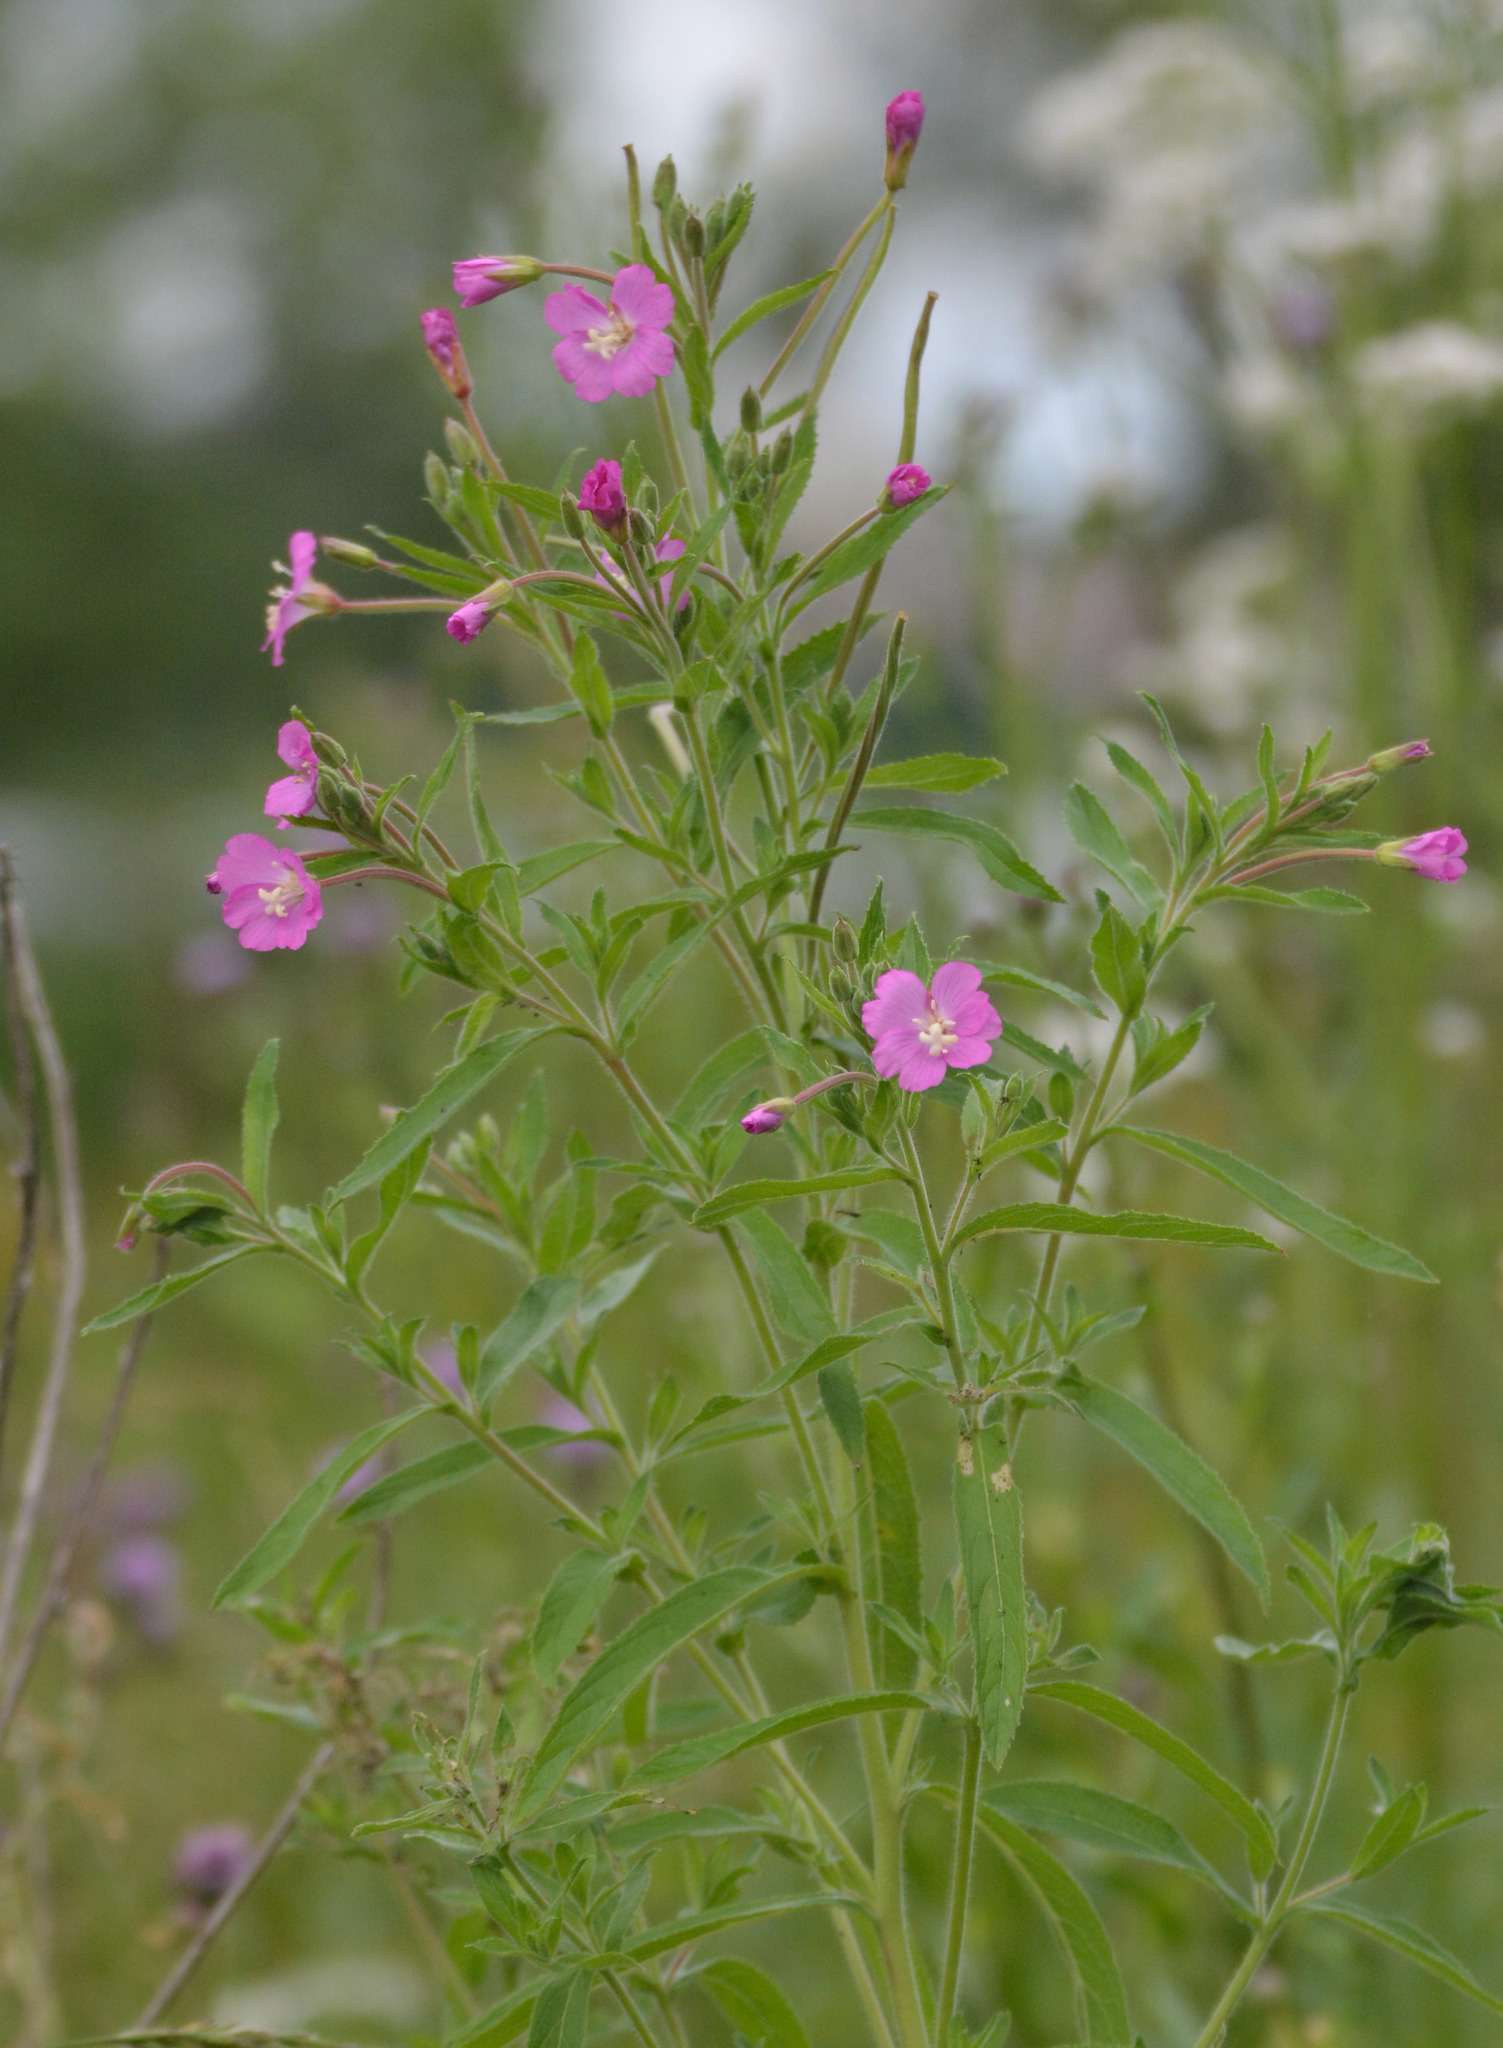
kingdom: Plantae
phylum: Tracheophyta
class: Magnoliopsida
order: Myrtales
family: Onagraceae
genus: Epilobium
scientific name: Epilobium hirsutum
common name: Great willowherb
